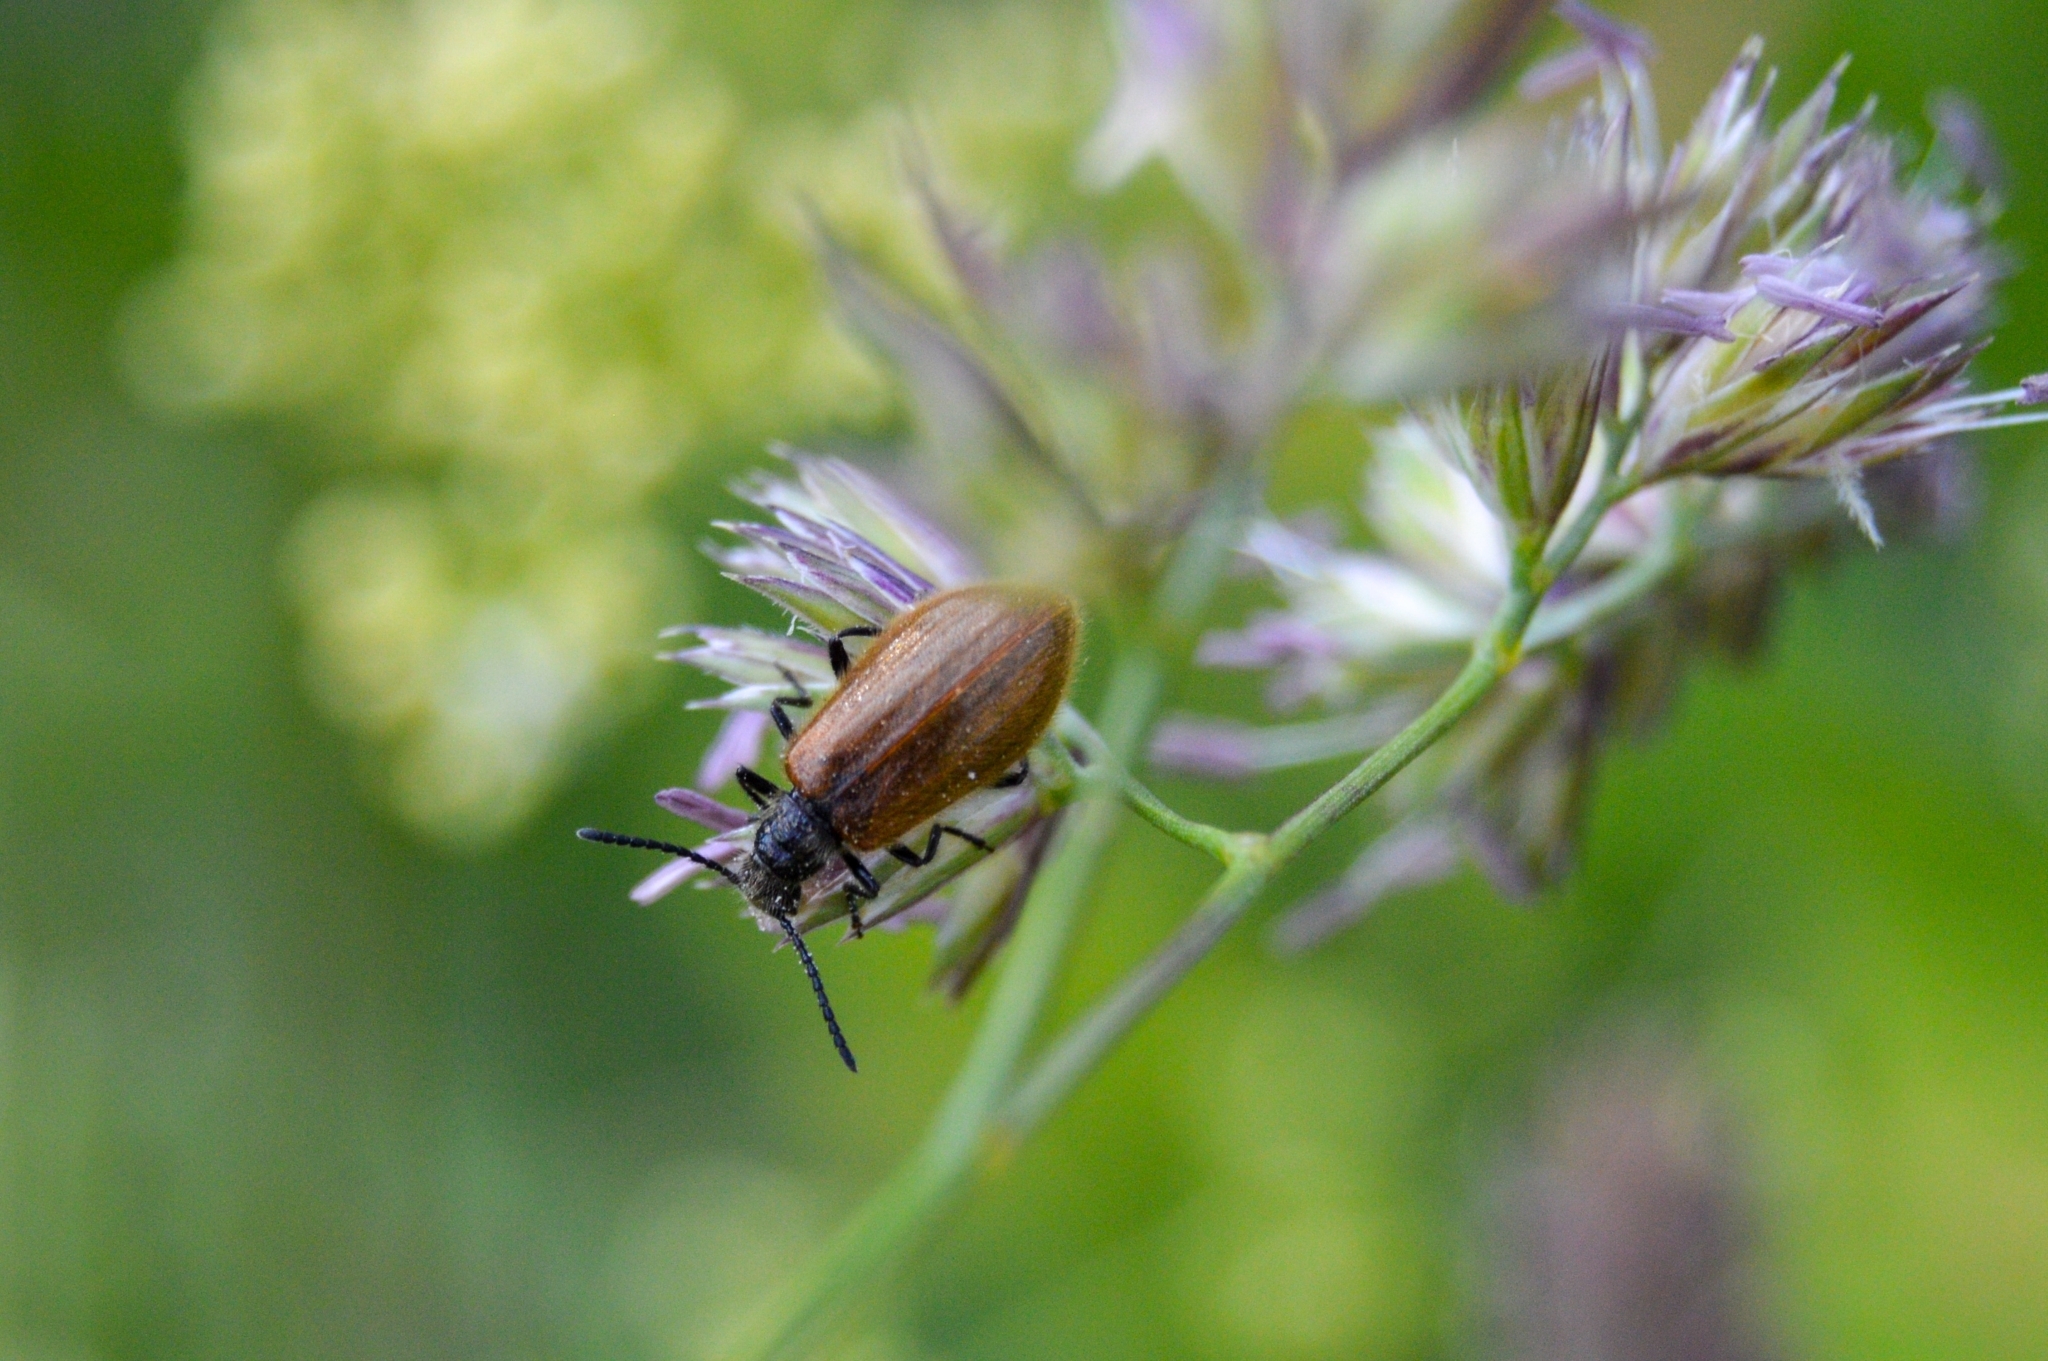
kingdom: Animalia
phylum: Arthropoda
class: Insecta
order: Coleoptera
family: Tenebrionidae
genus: Lagria
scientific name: Lagria hirta
